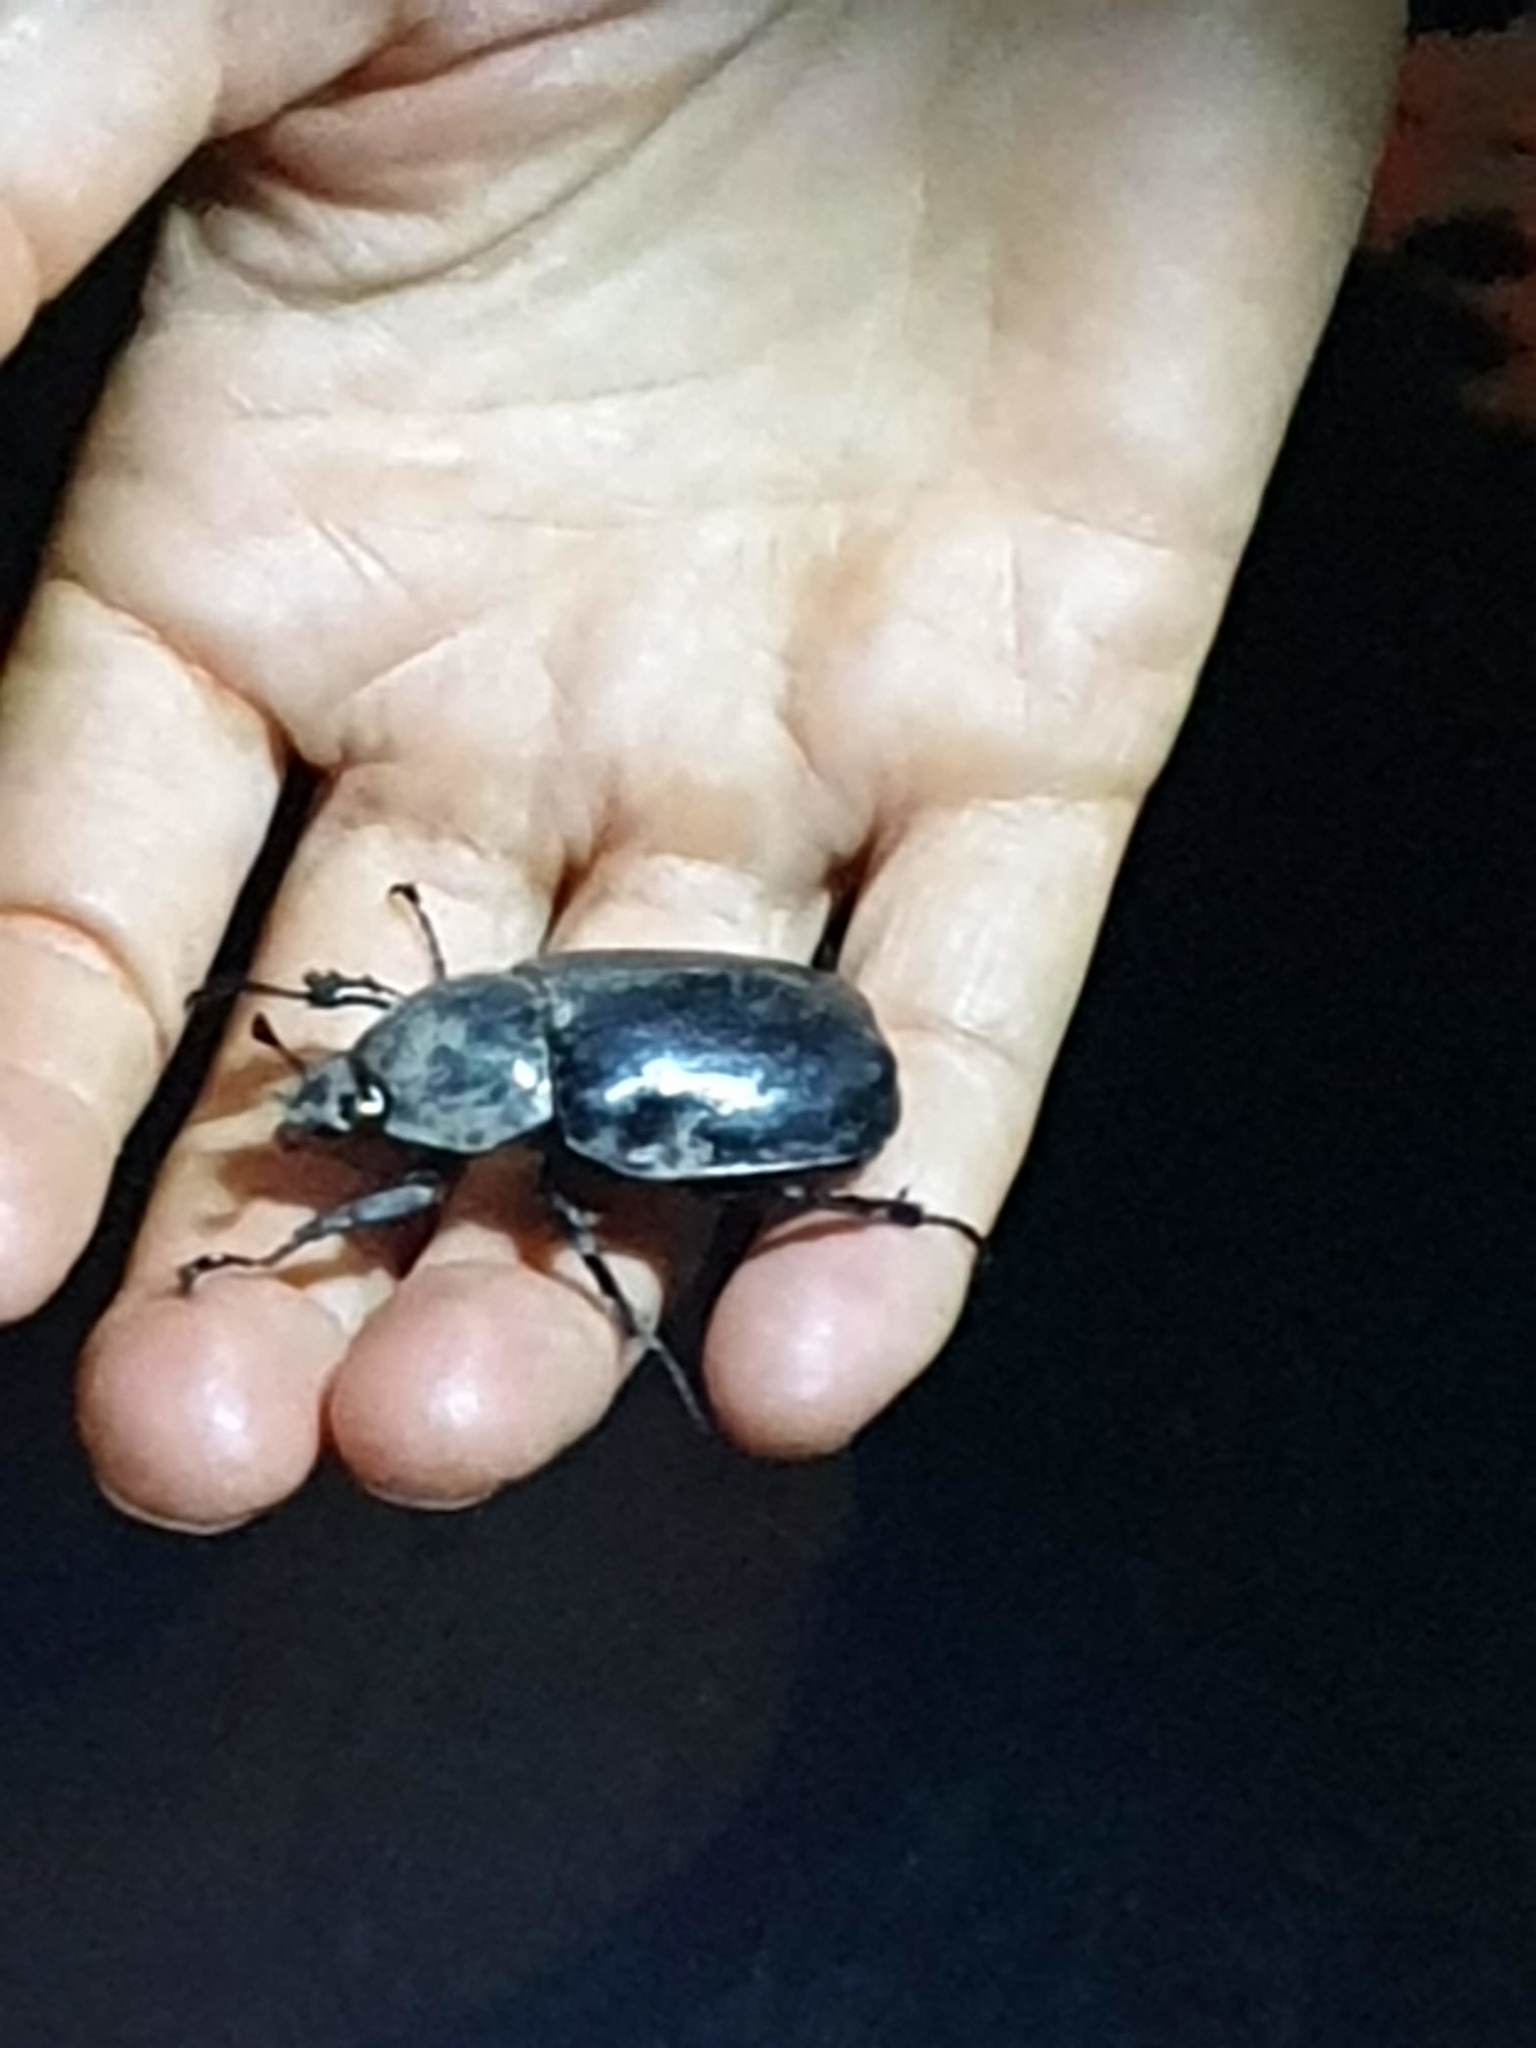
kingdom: Animalia
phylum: Arthropoda
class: Insecta
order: Coleoptera
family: Scarabaeidae
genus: Xylotrupes
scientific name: Xylotrupes australicus
